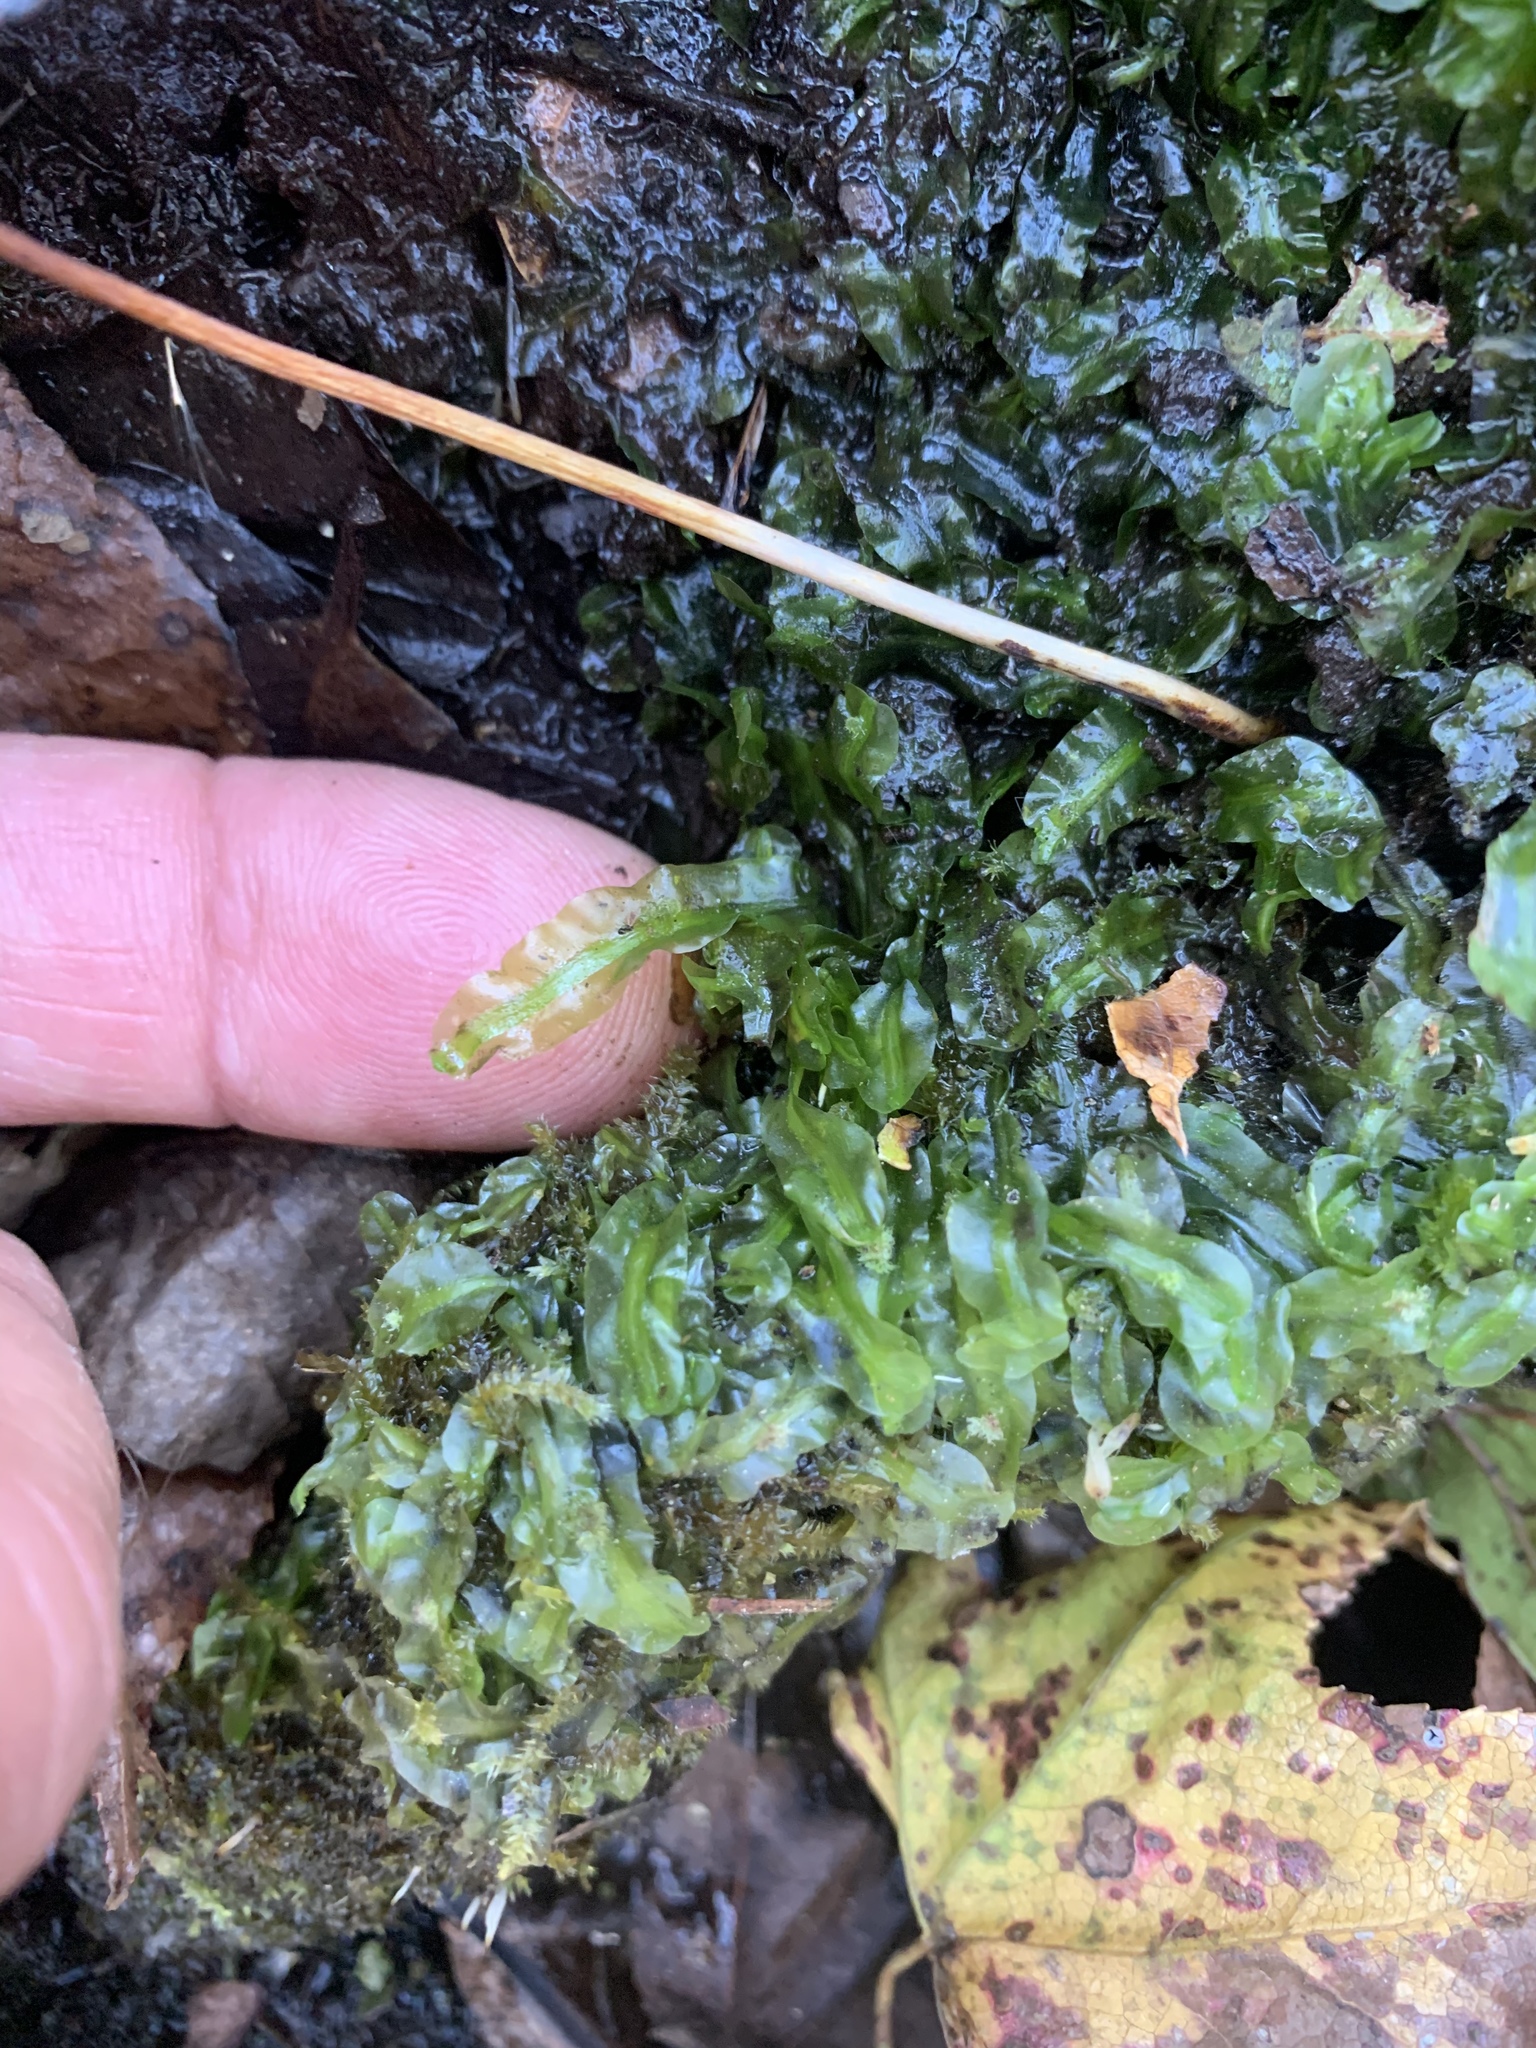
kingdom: Plantae
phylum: Marchantiophyta
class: Jungermanniopsida
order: Pallaviciniales
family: Pallaviciniaceae
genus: Pallavicinia
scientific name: Pallavicinia lyellii
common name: Veilwort
